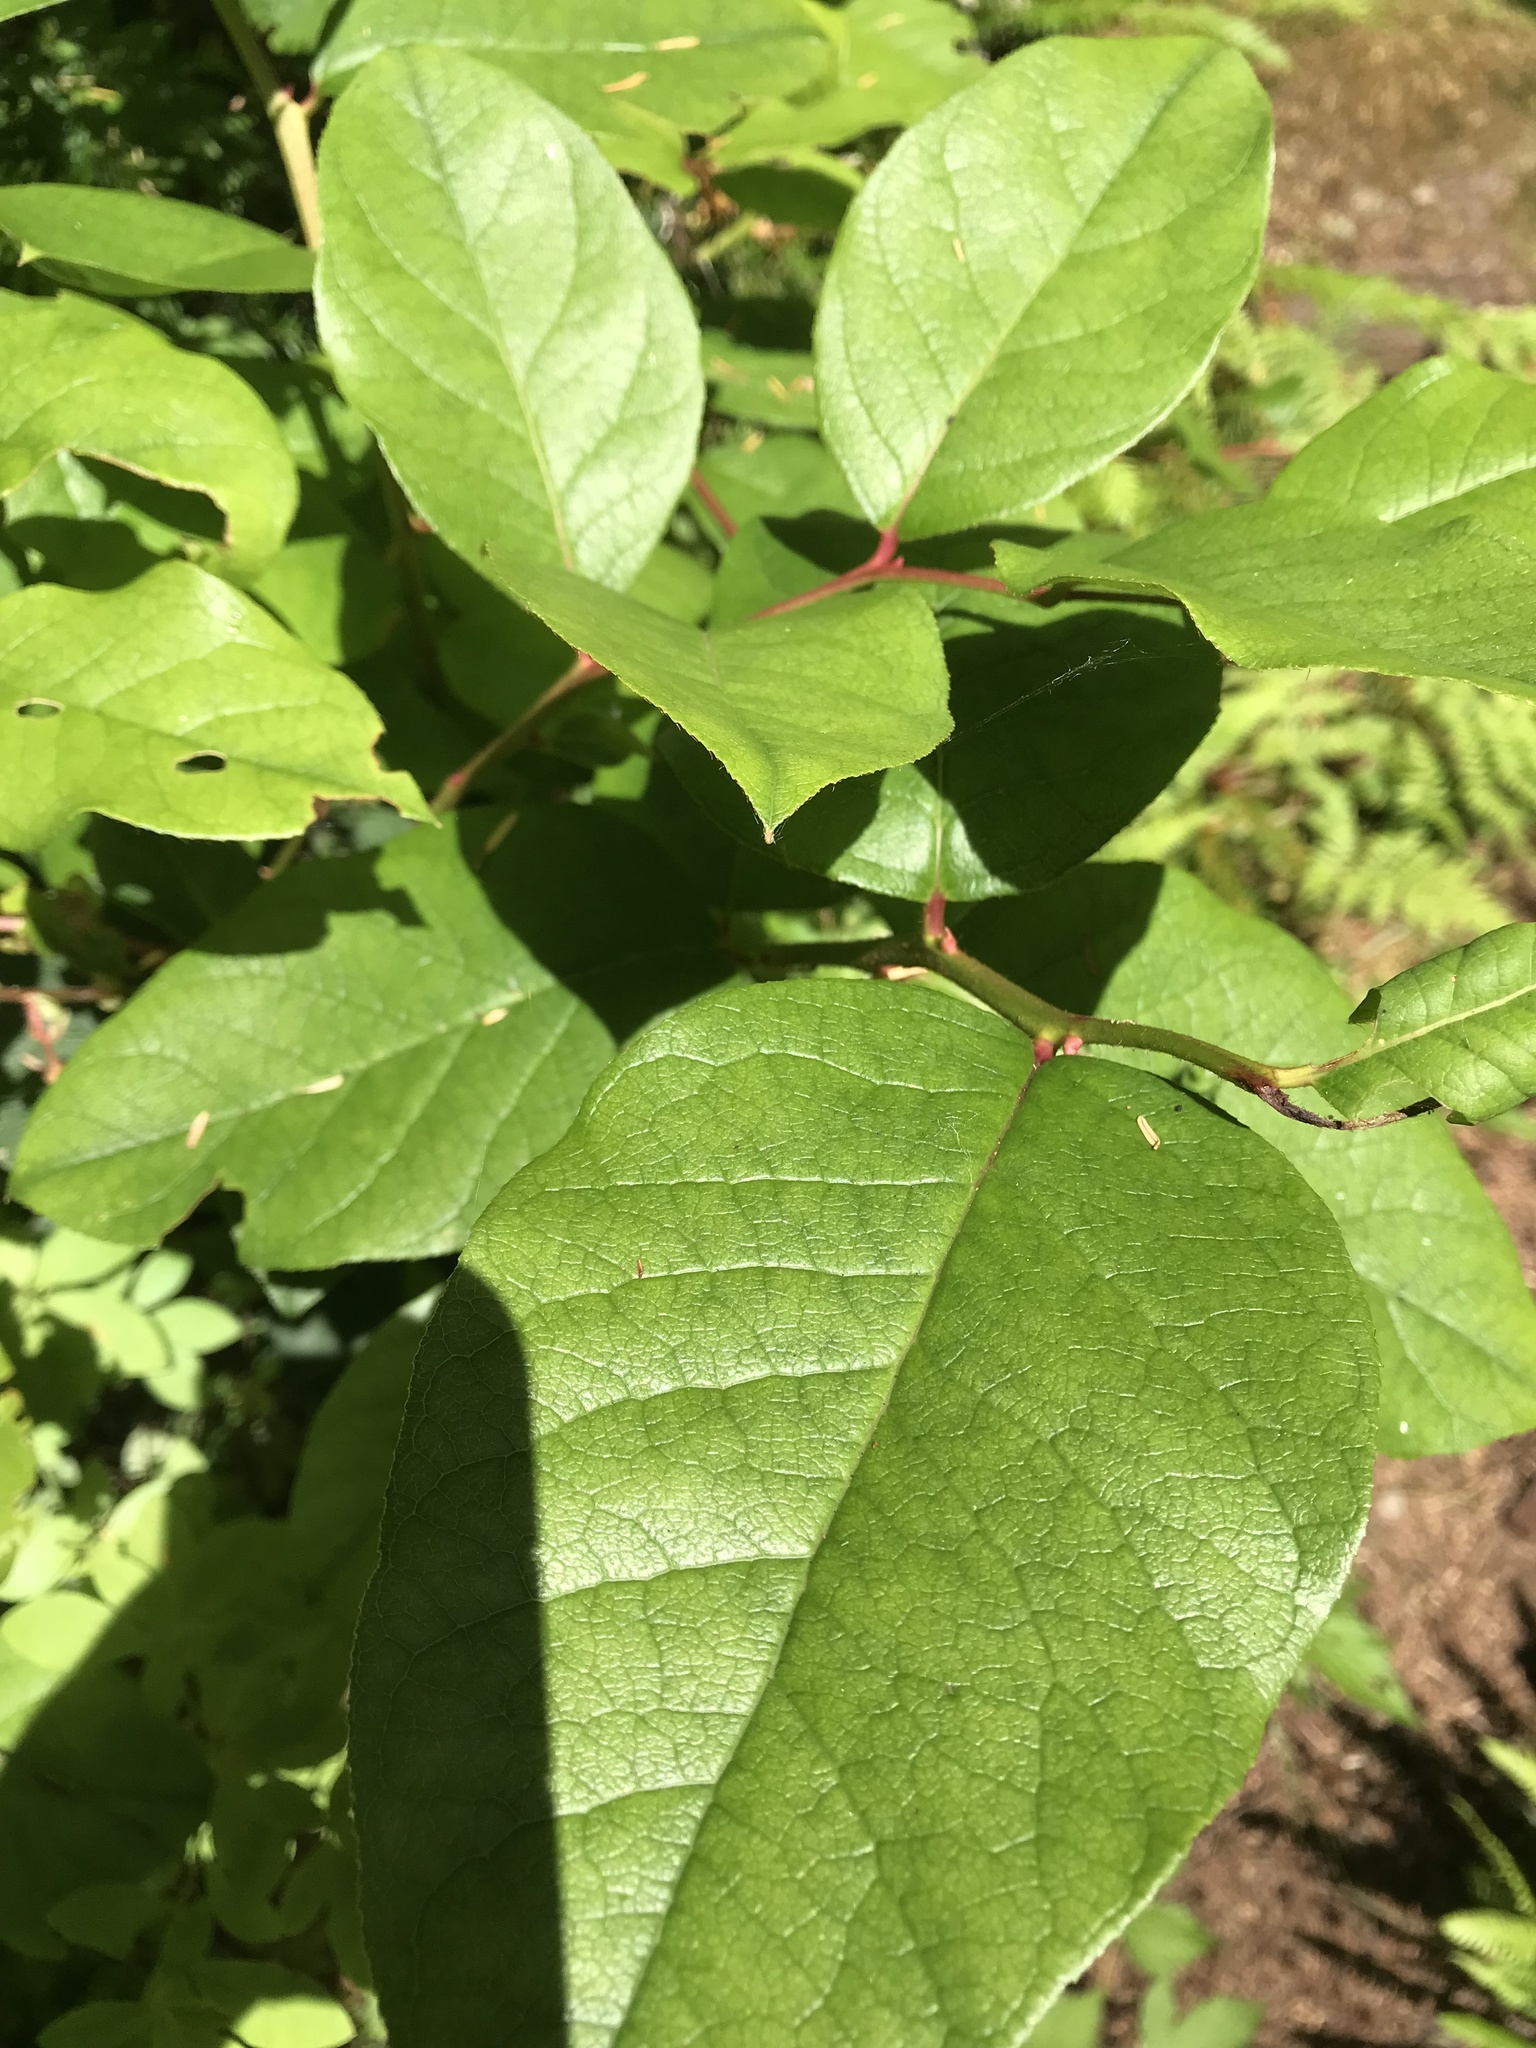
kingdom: Plantae
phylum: Tracheophyta
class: Magnoliopsida
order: Ericales
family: Ericaceae
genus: Gaultheria
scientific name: Gaultheria shallon
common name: Shallon
